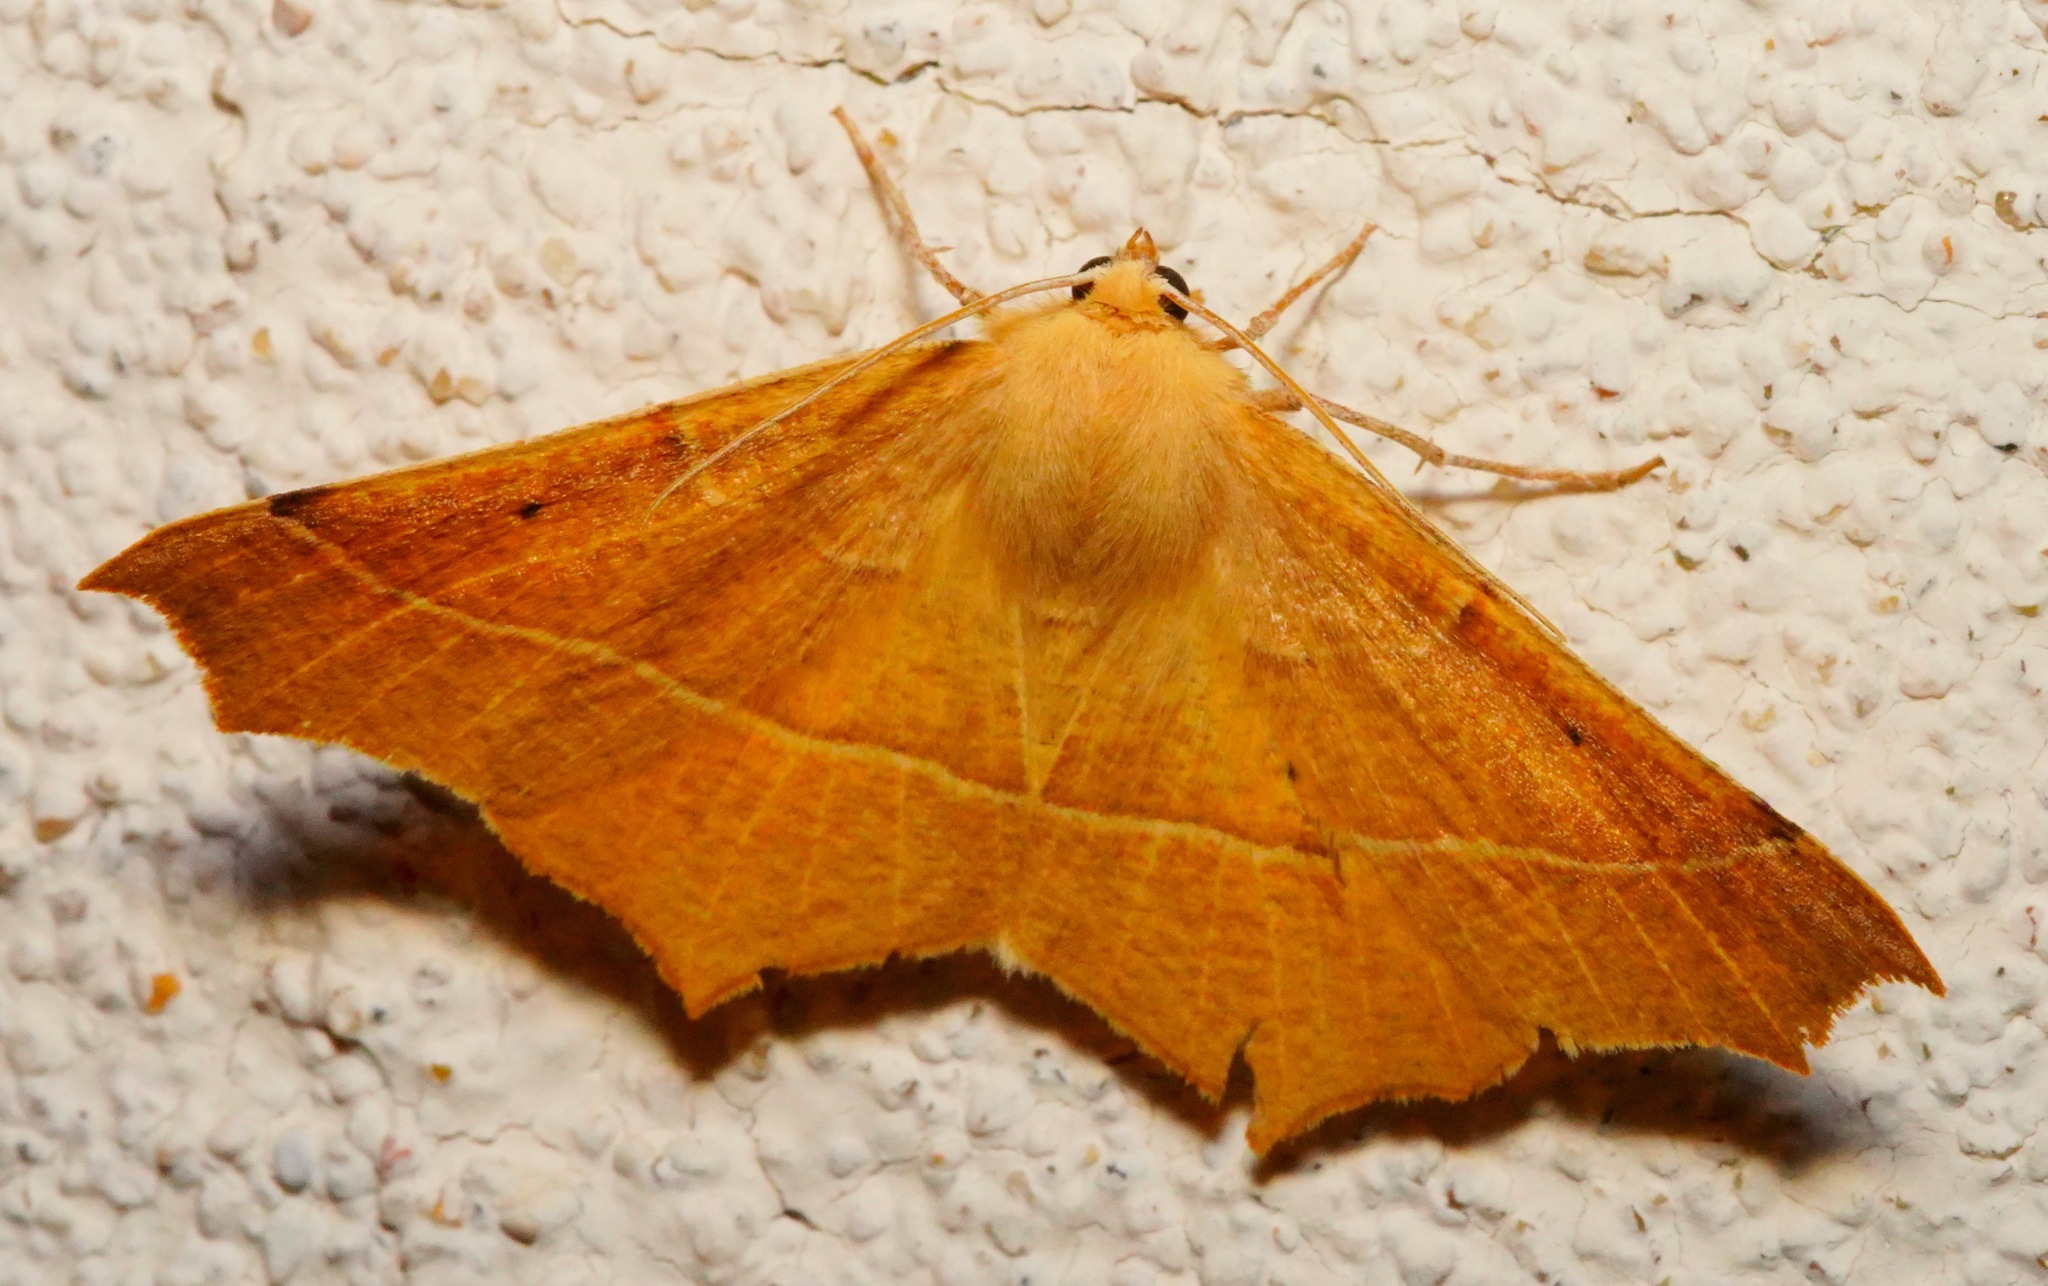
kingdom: Animalia
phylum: Arthropoda
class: Insecta
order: Lepidoptera
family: Geometridae
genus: Tetracis
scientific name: Tetracis cervinaria
